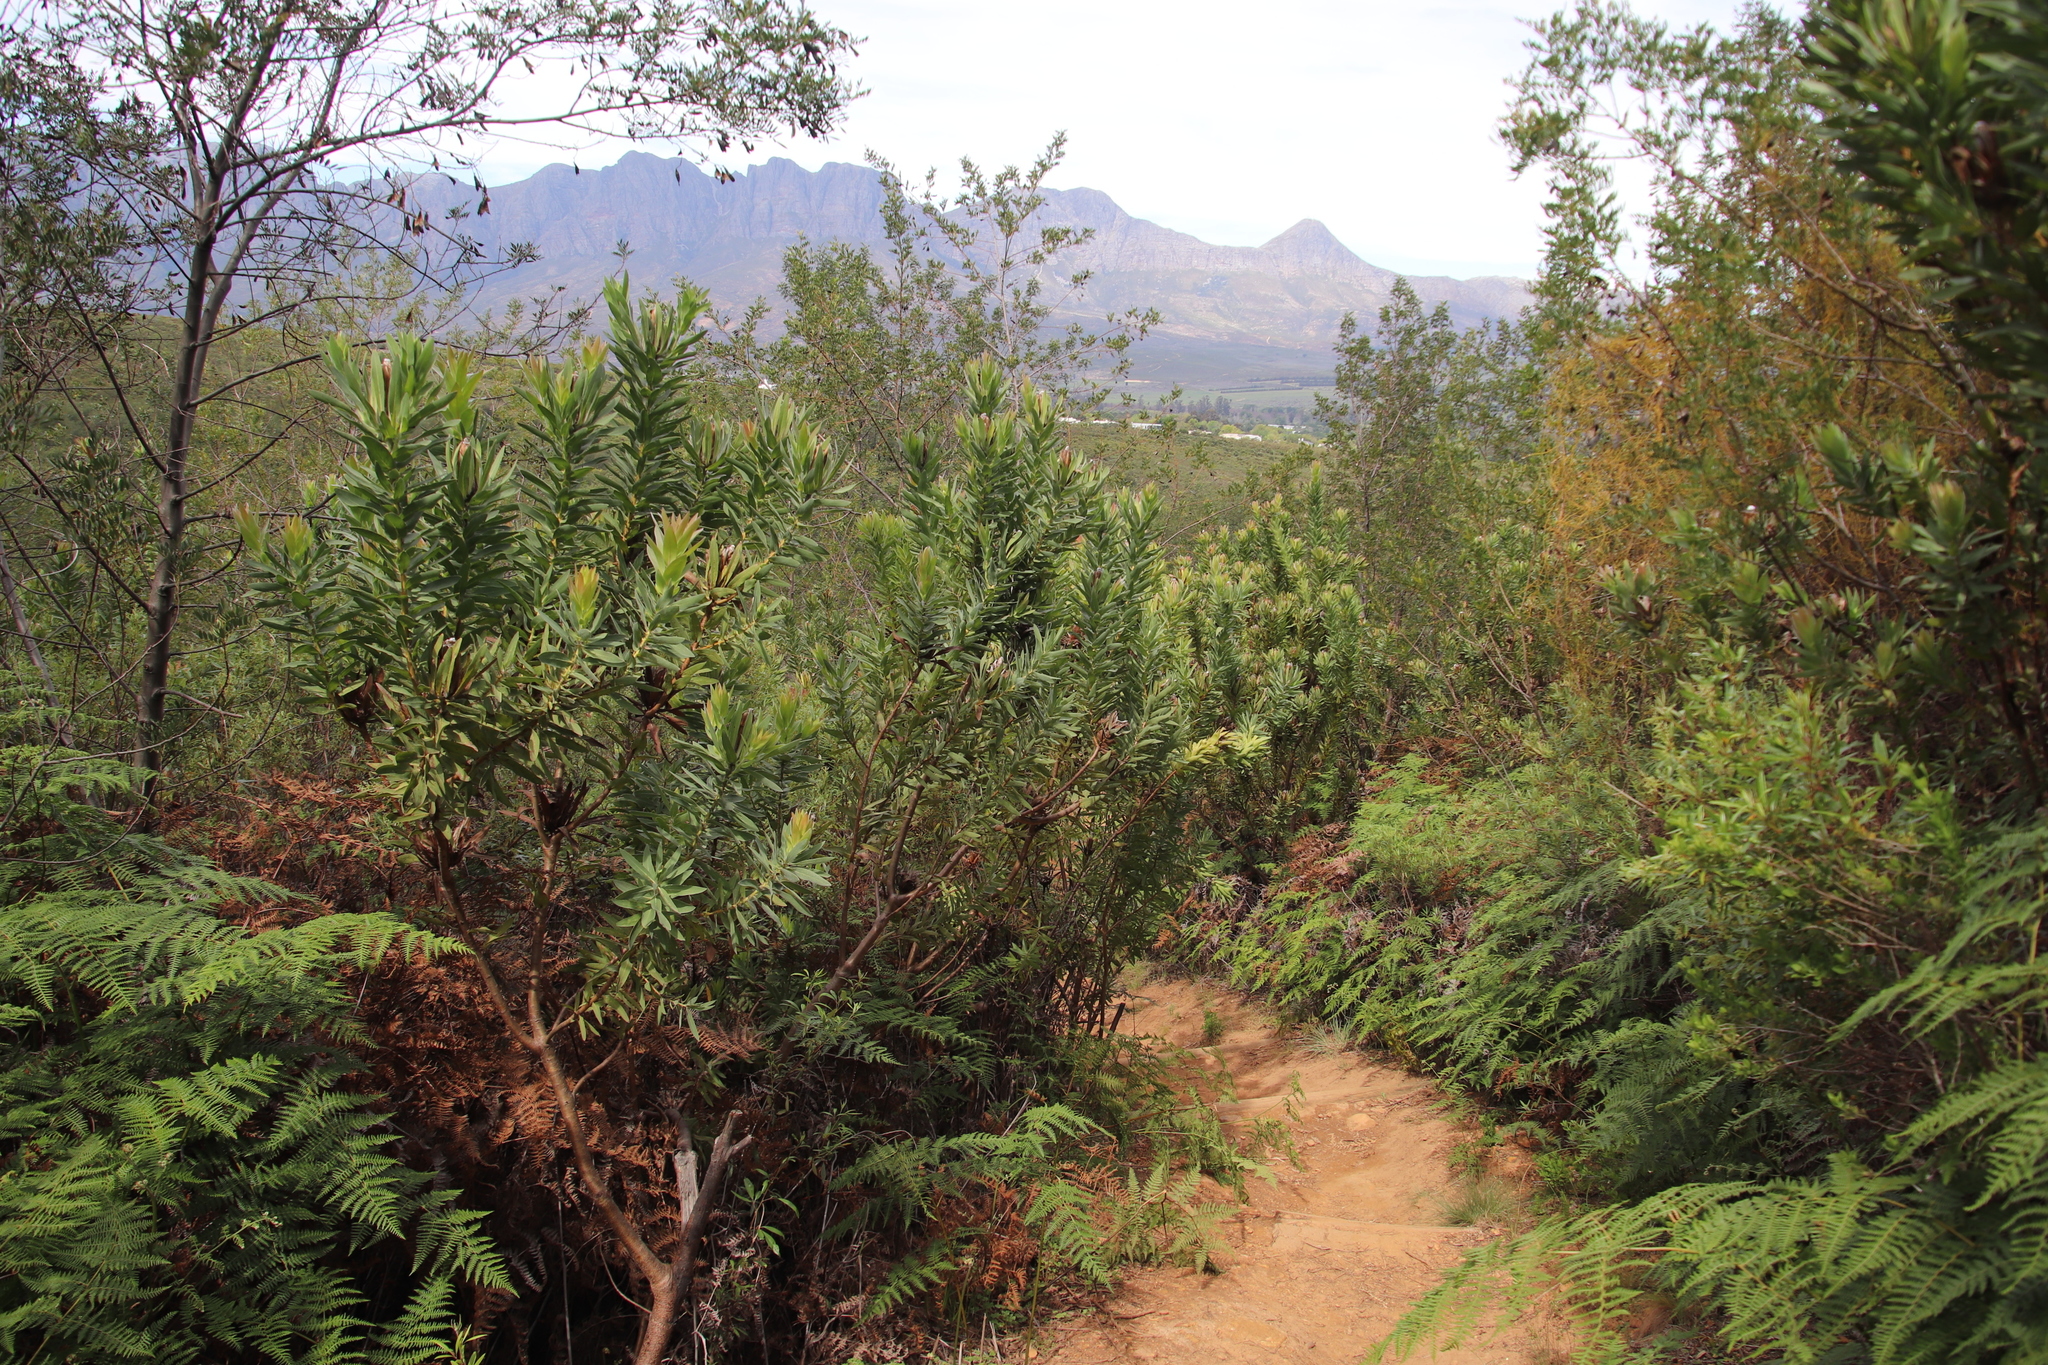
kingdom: Plantae
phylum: Tracheophyta
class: Magnoliopsida
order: Proteales
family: Proteaceae
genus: Protea
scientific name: Protea coronata
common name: Green sugarbush
